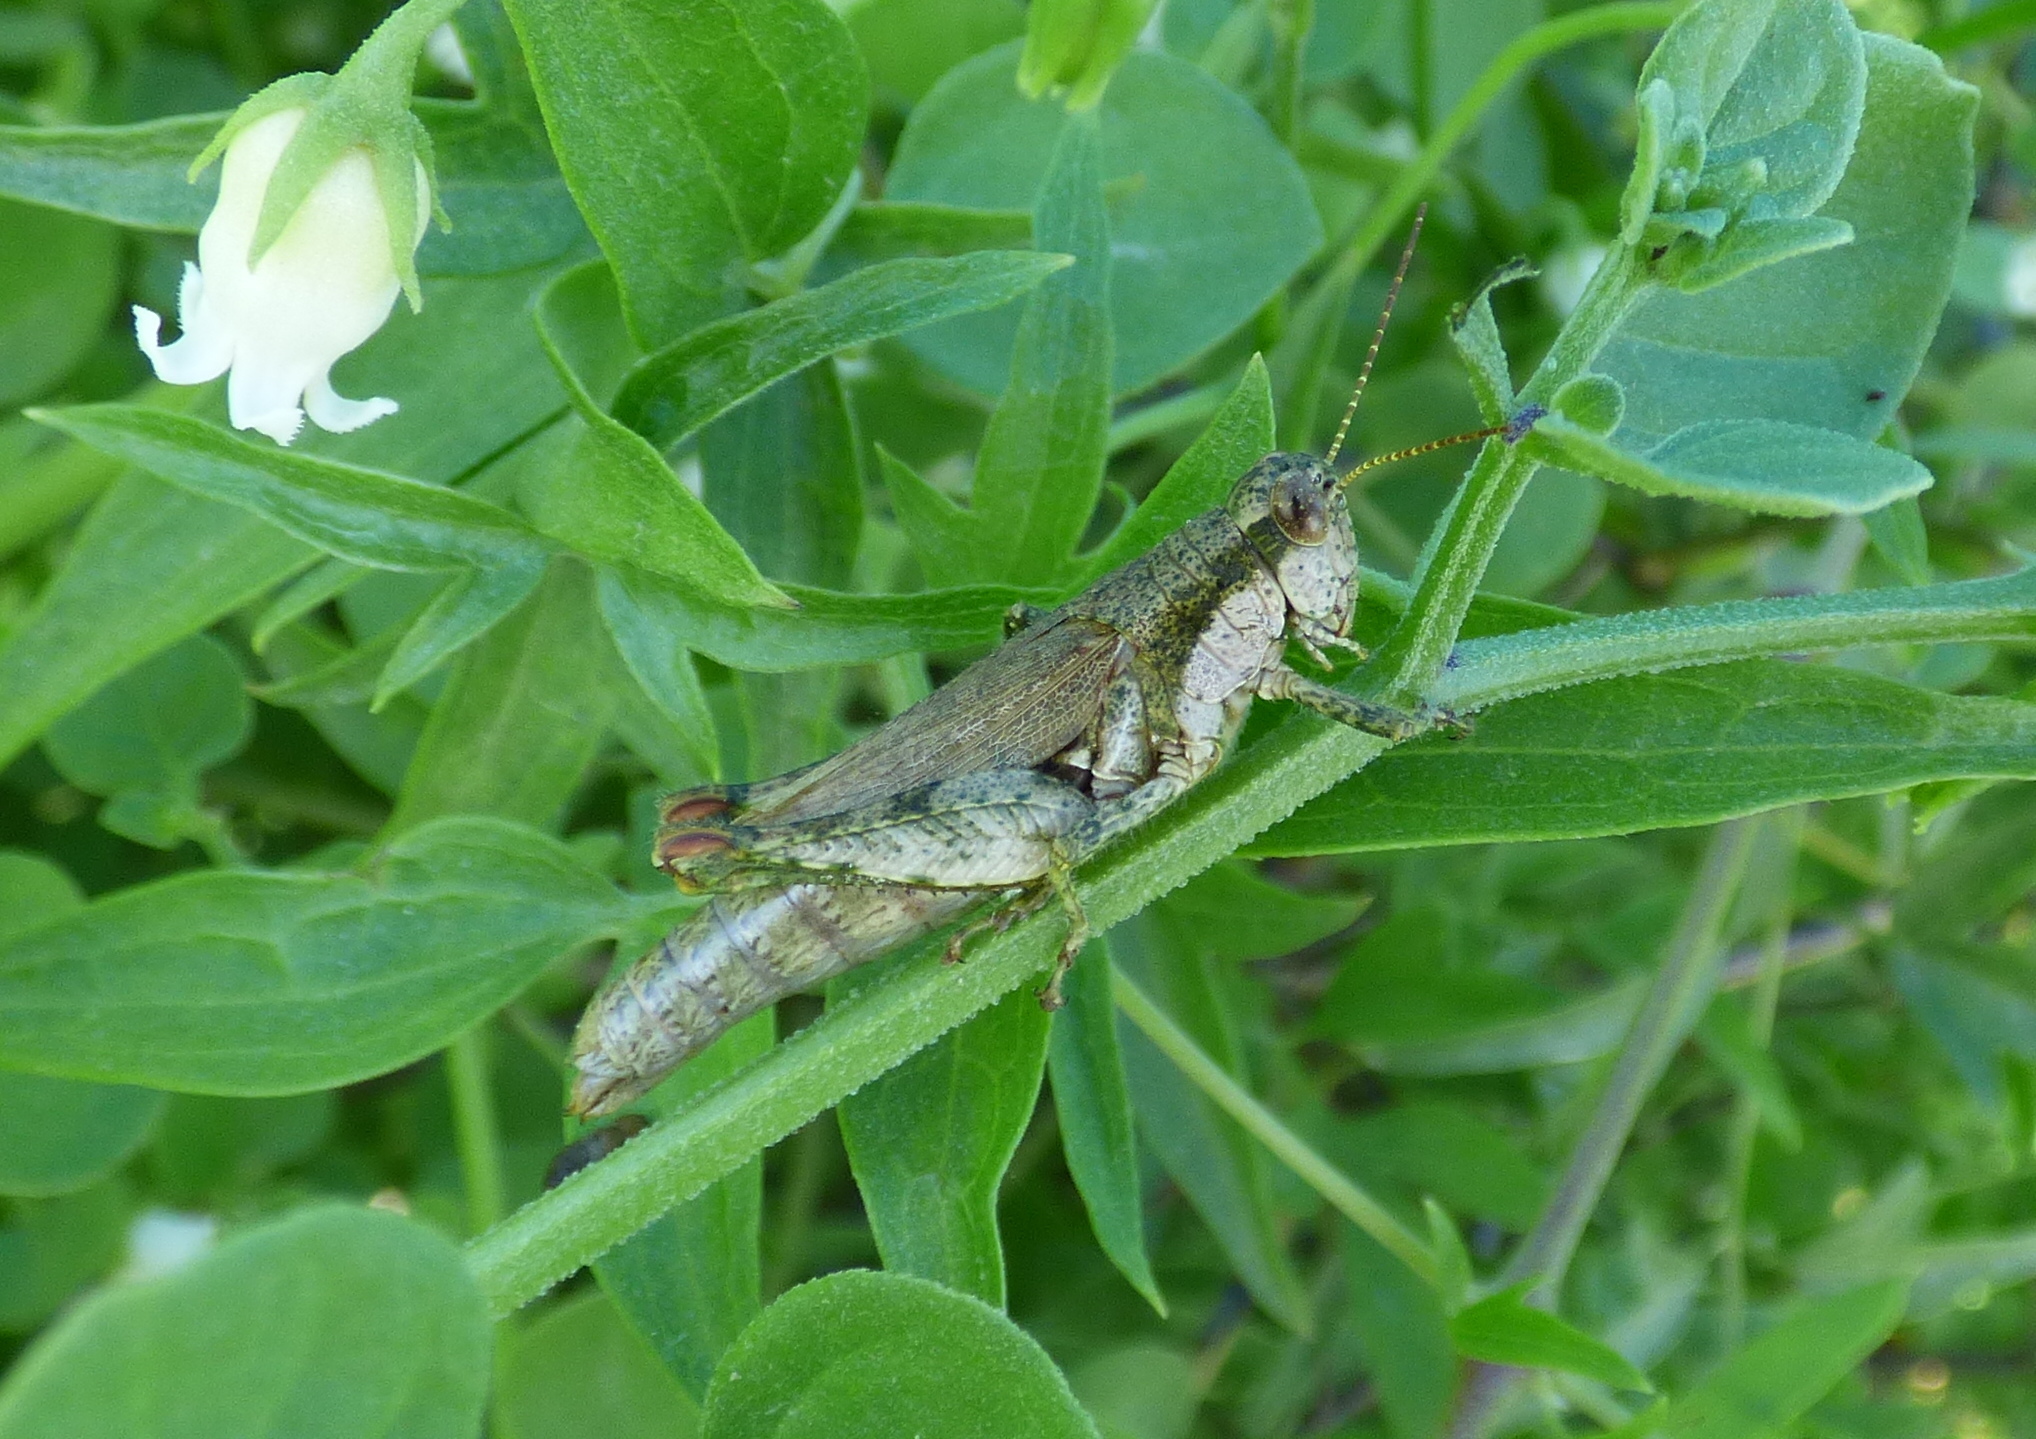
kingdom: Animalia
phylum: Arthropoda
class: Insecta
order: Orthoptera
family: Acrididae
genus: Ronderosia
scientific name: Ronderosia bergii
